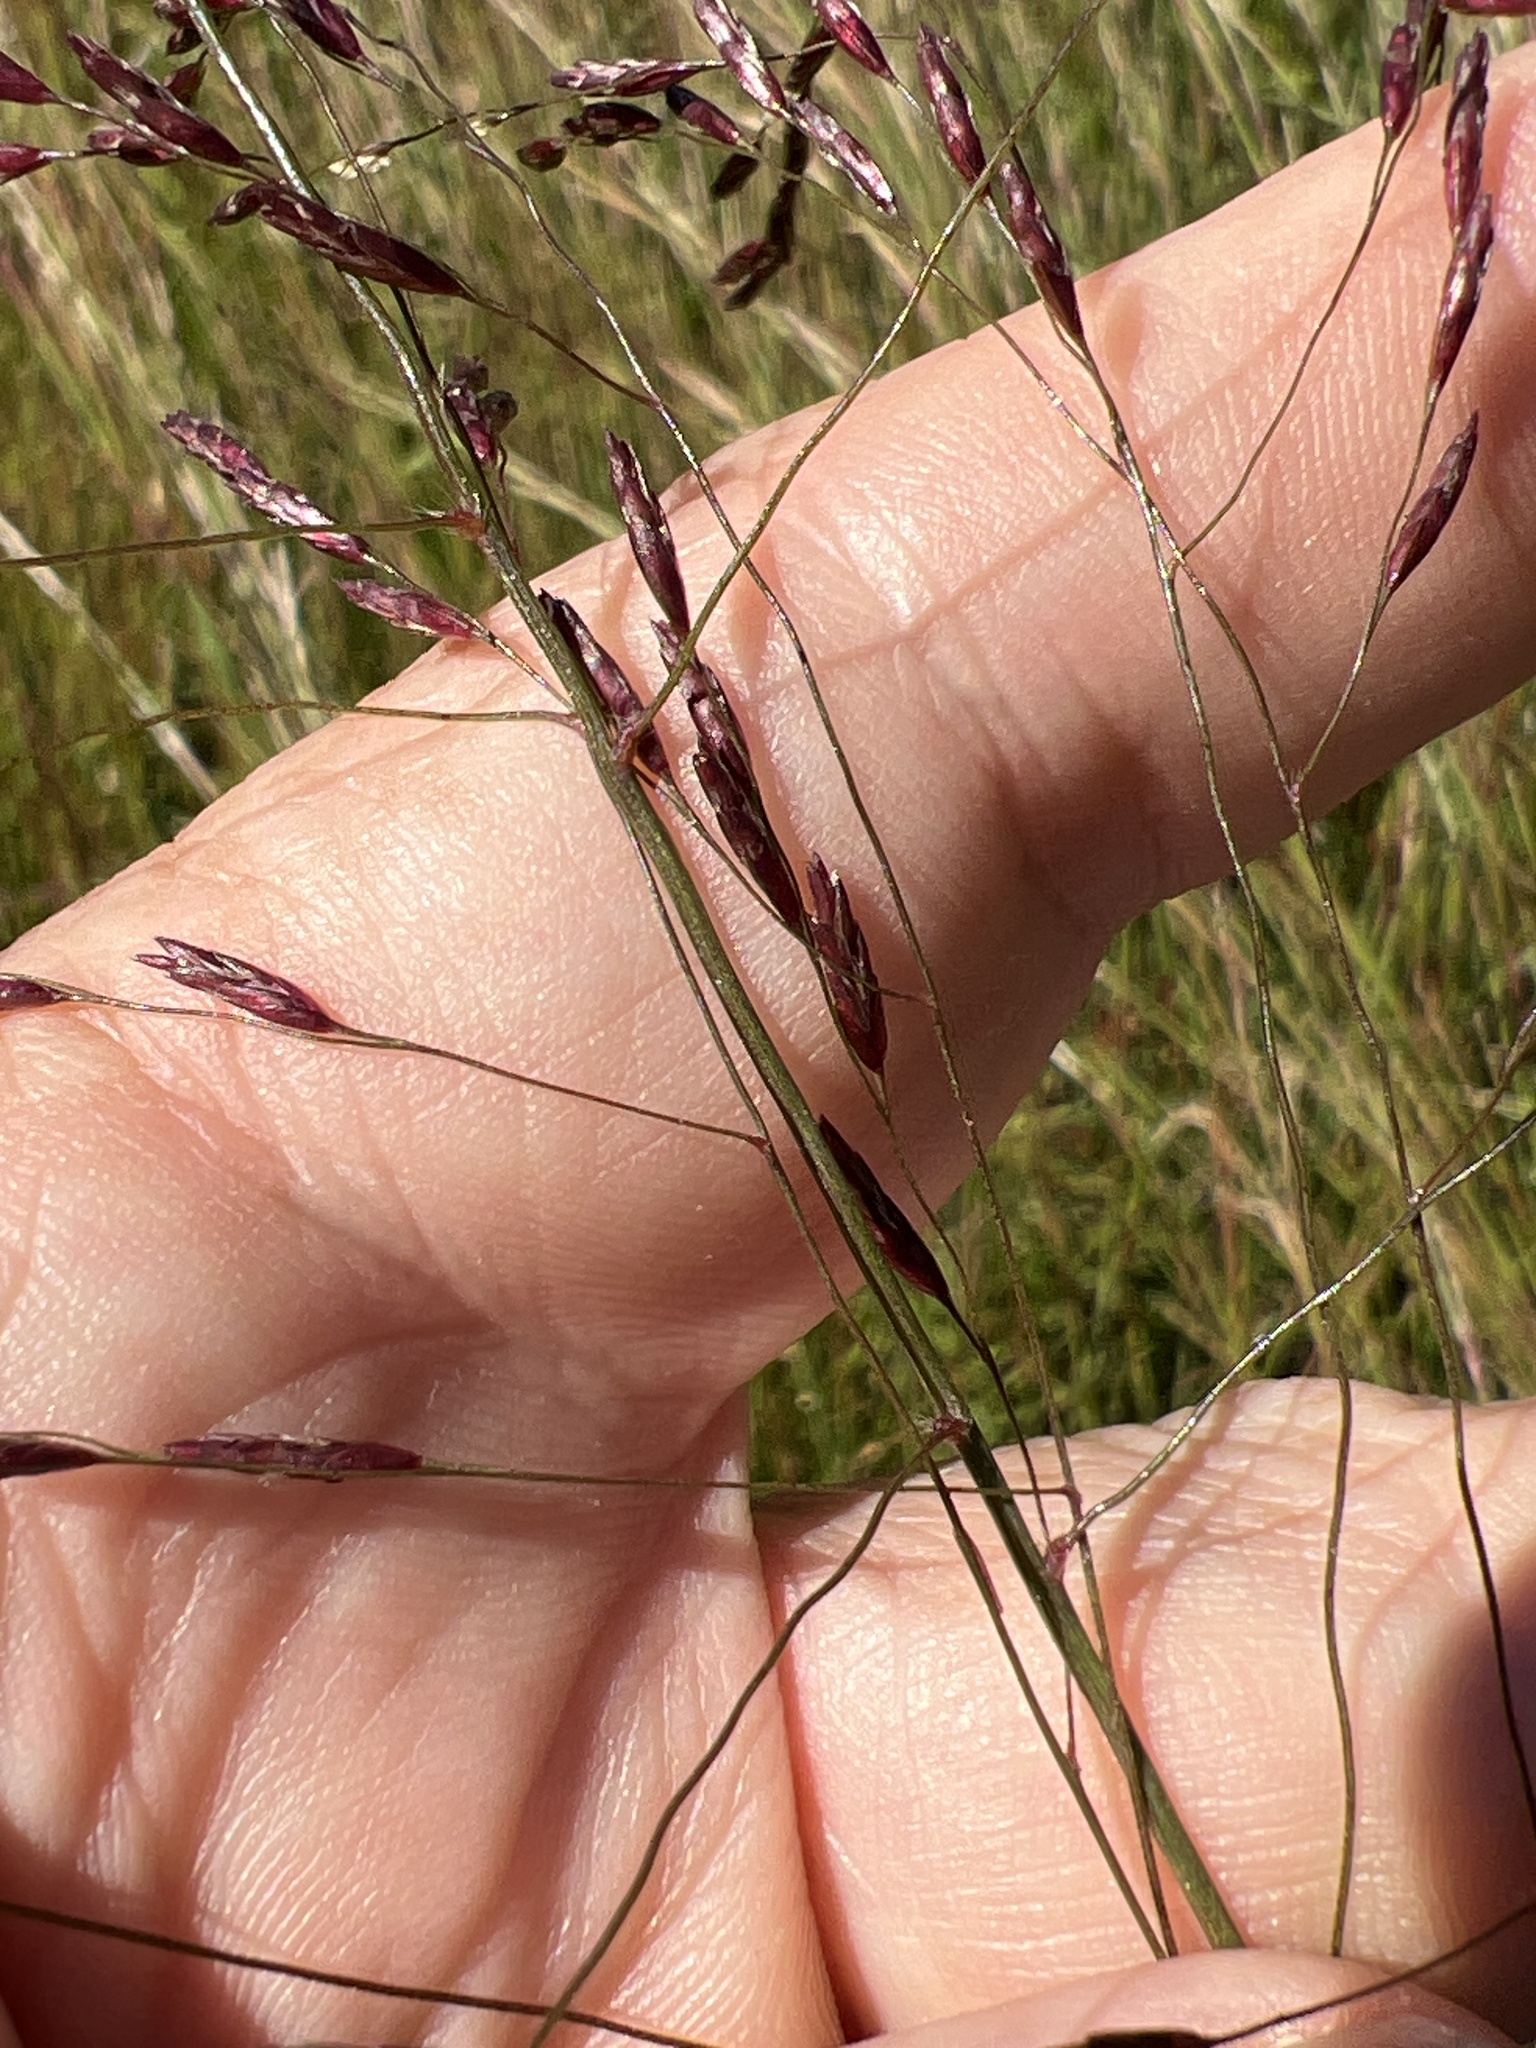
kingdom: Plantae
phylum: Tracheophyta
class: Liliopsida
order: Poales
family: Poaceae
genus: Tridens
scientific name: Tridens flavus
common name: Purpletop
